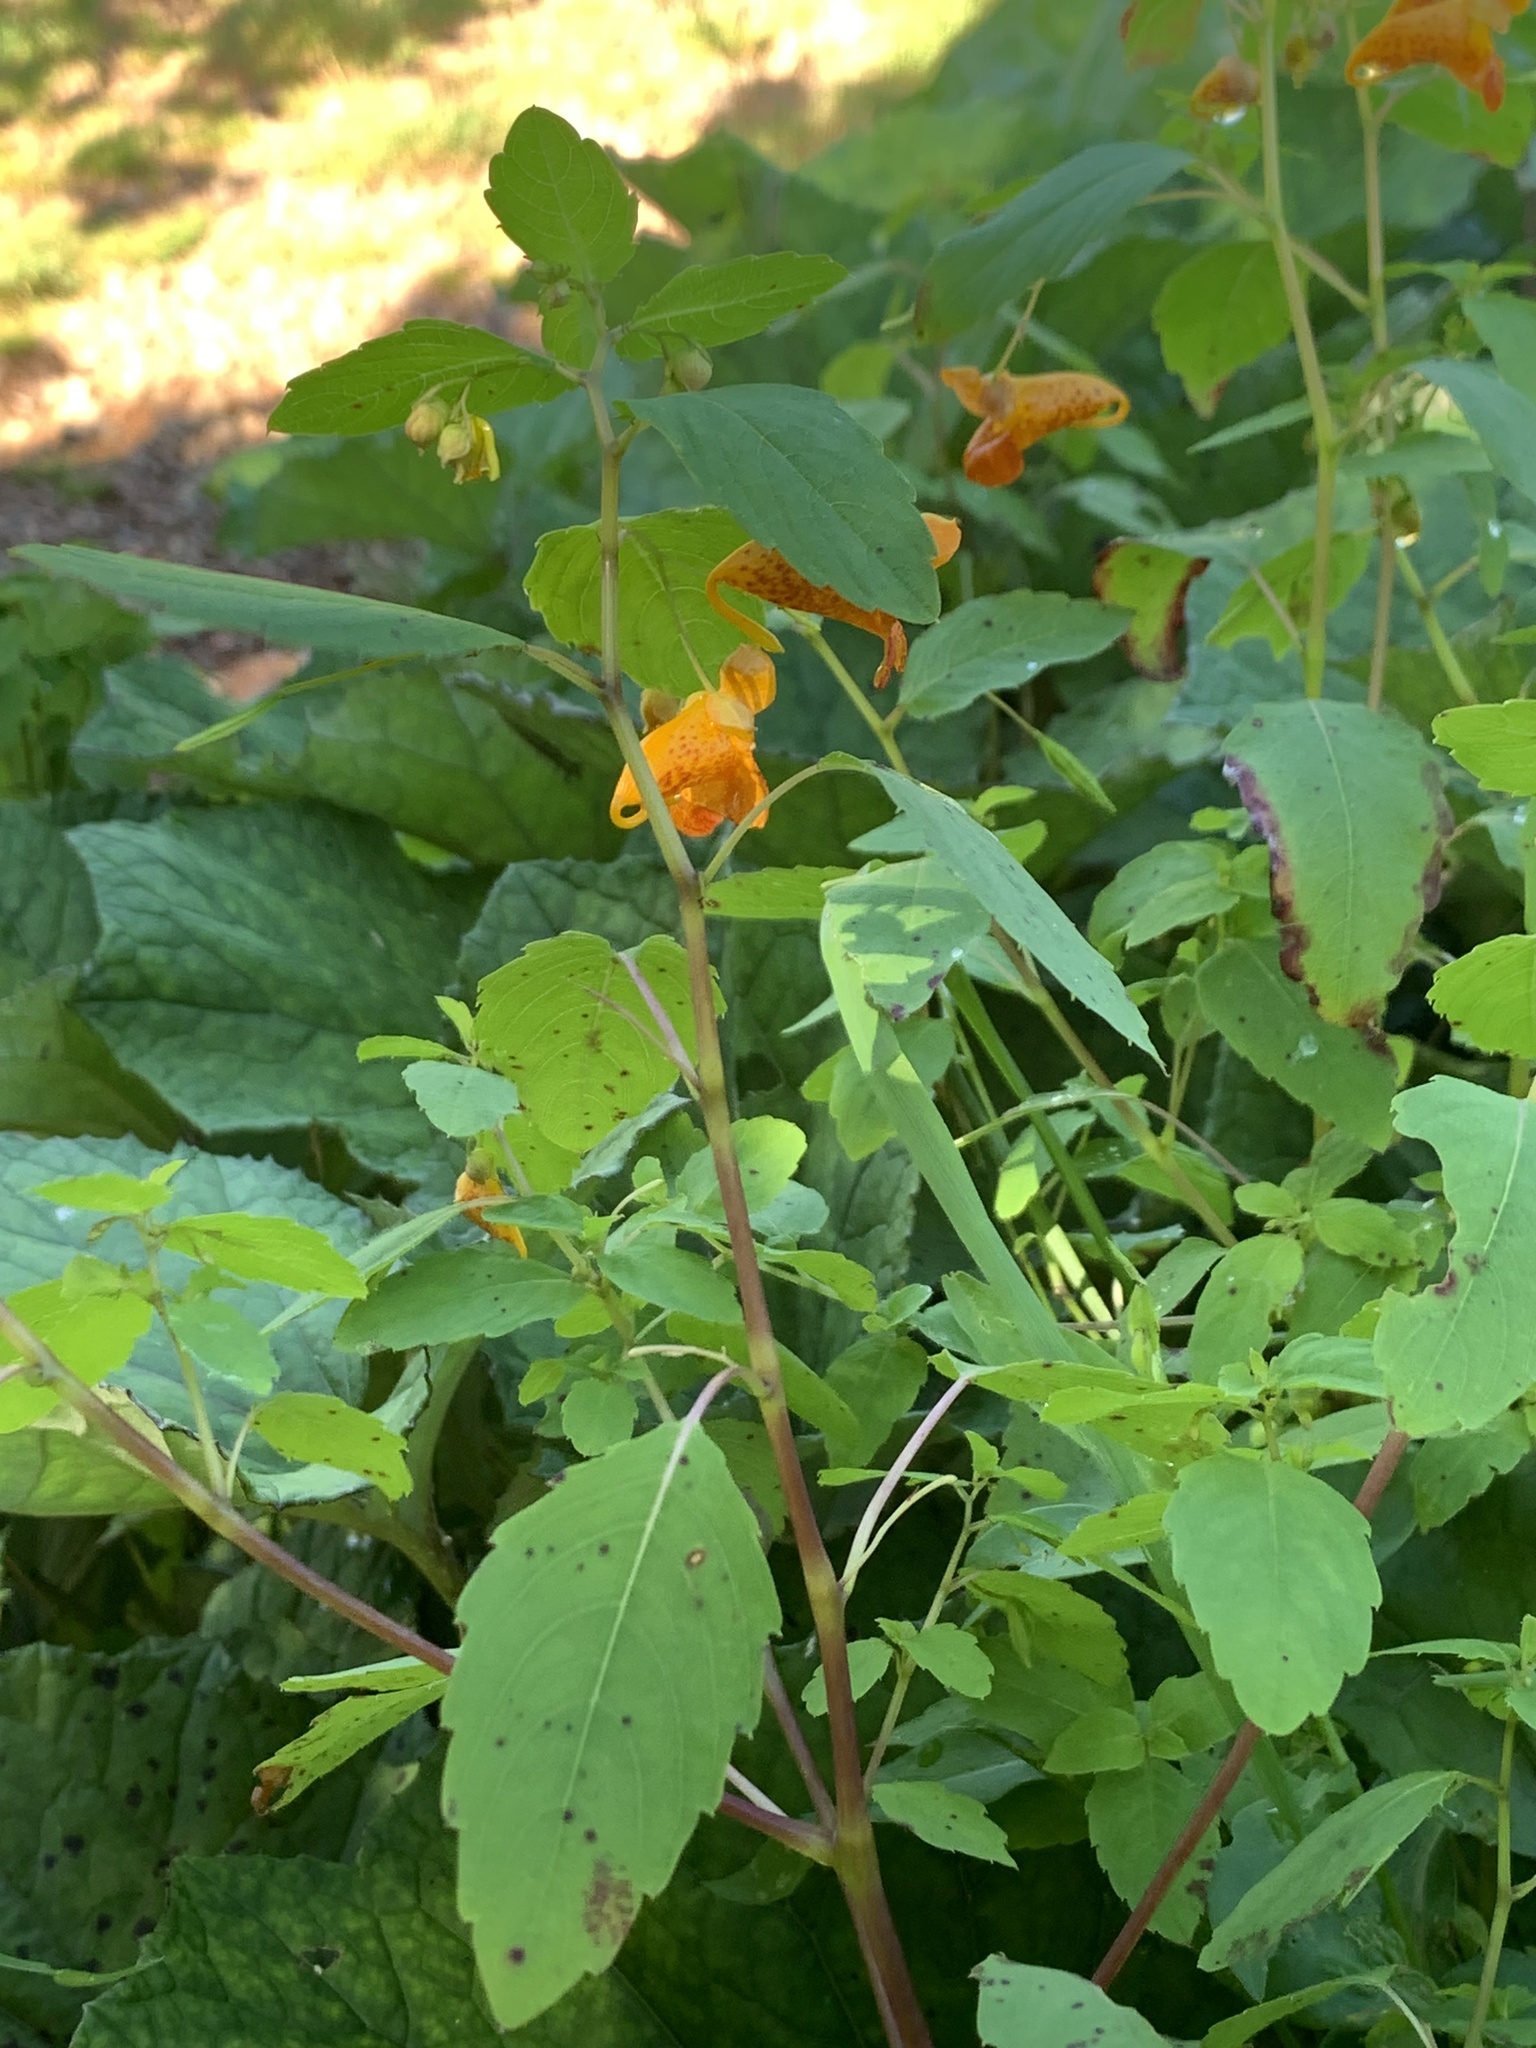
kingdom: Plantae
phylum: Tracheophyta
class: Magnoliopsida
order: Ericales
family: Balsaminaceae
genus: Impatiens
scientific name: Impatiens capensis
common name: Orange balsam
